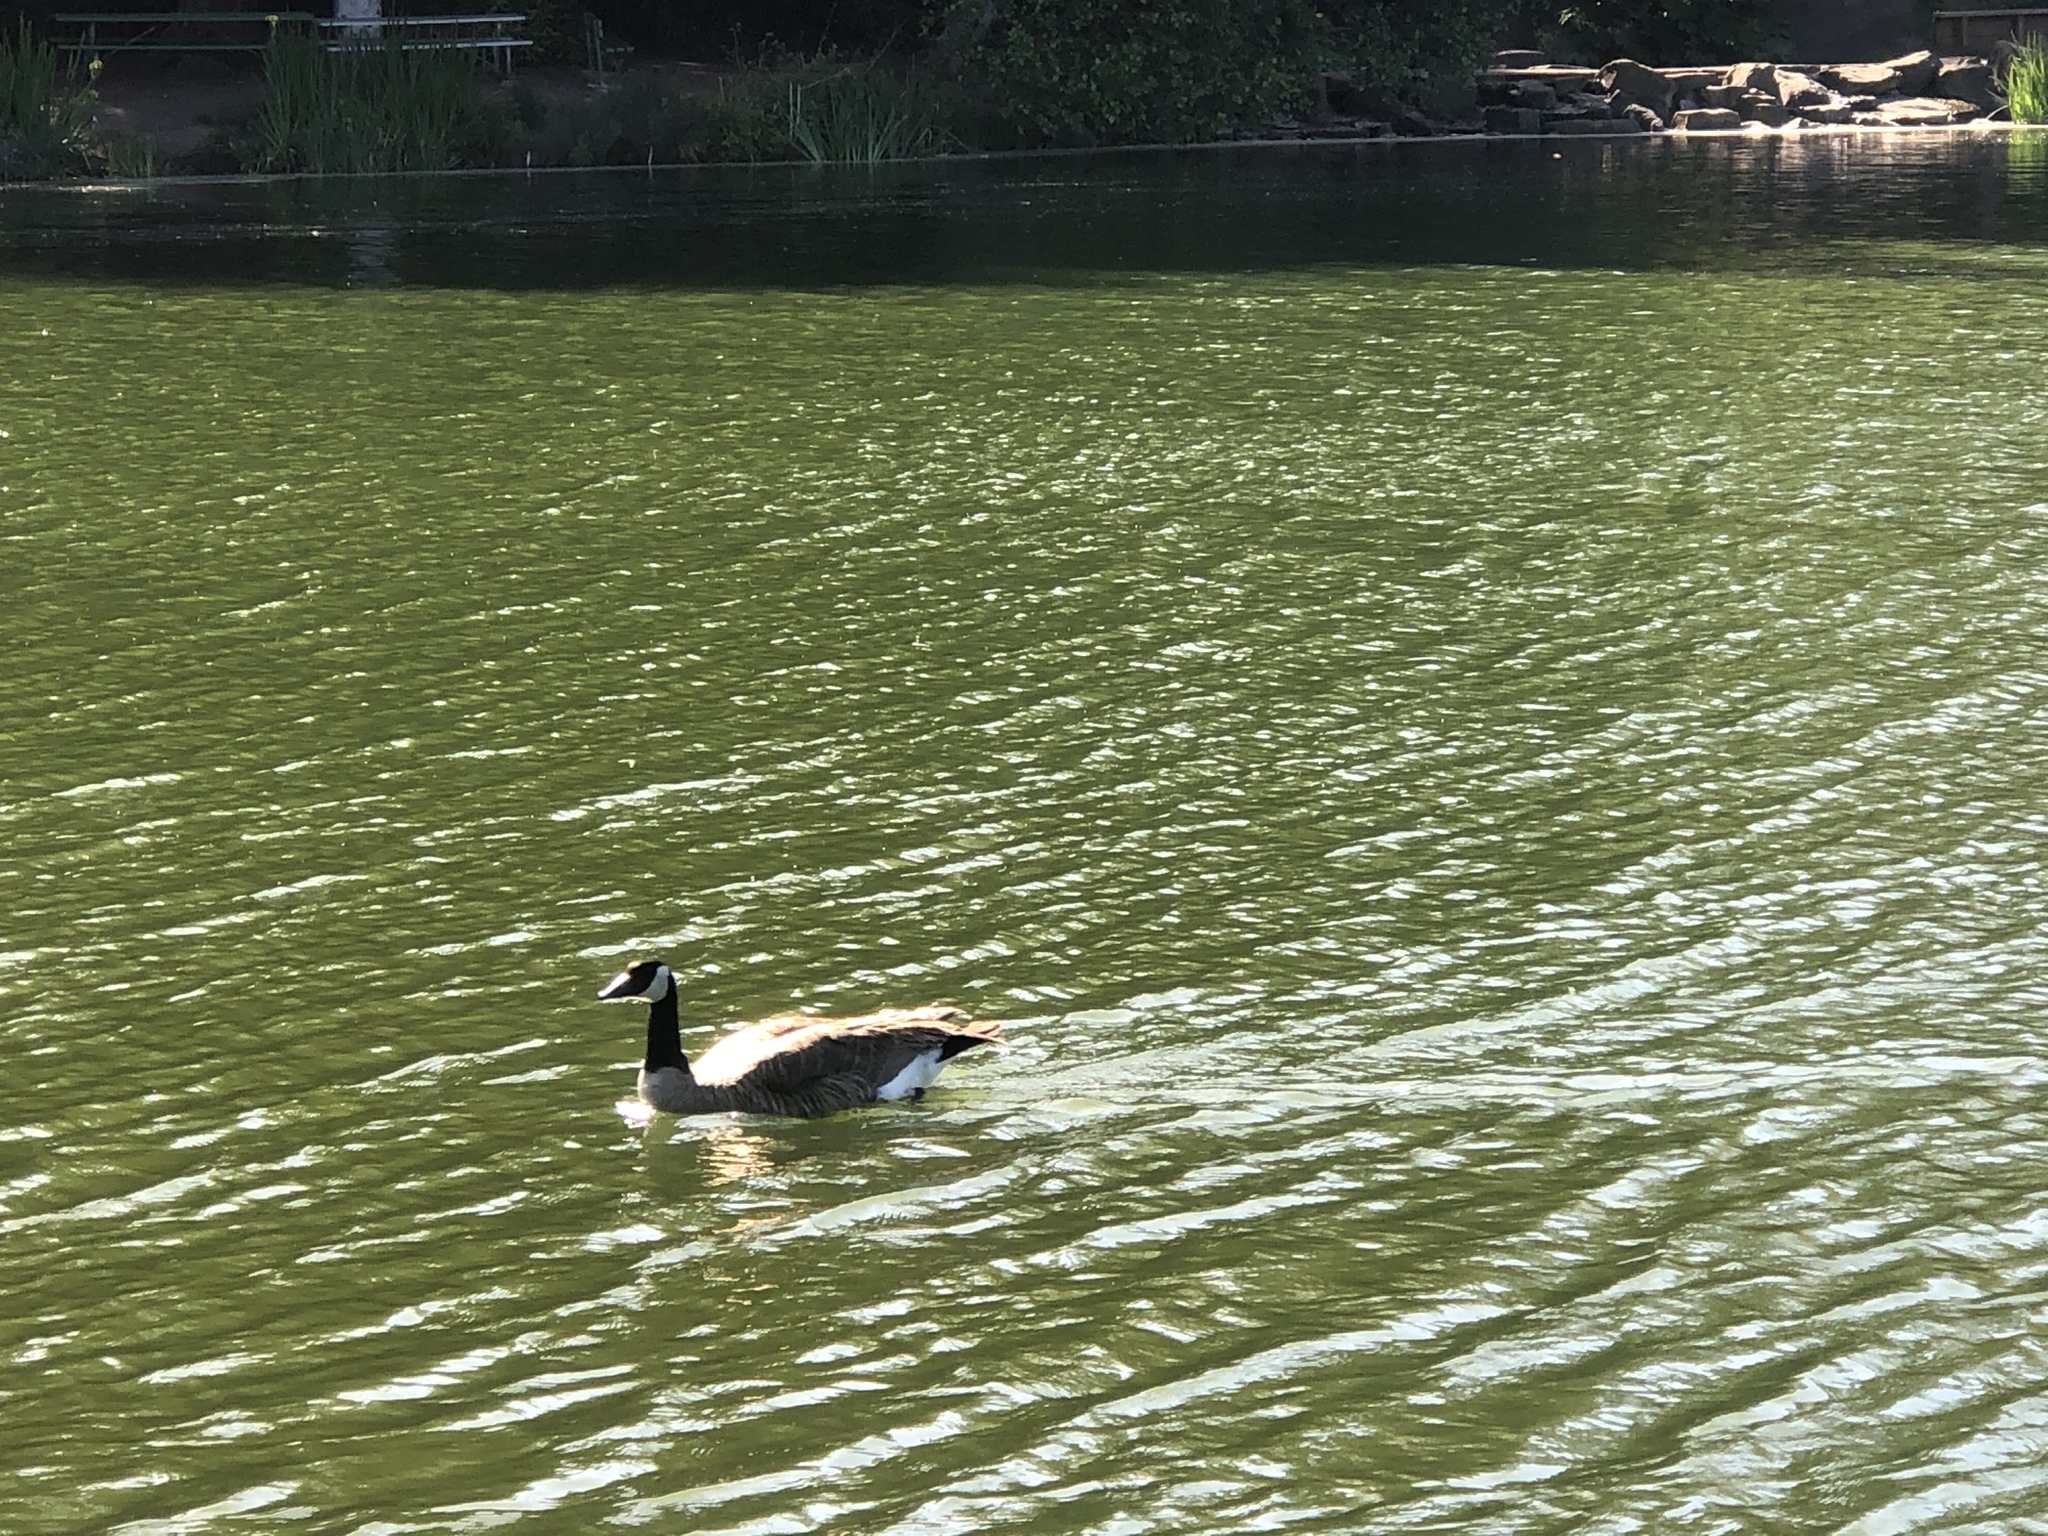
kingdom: Animalia
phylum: Chordata
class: Aves
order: Anseriformes
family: Anatidae
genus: Branta
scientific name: Branta canadensis
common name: Canada goose
